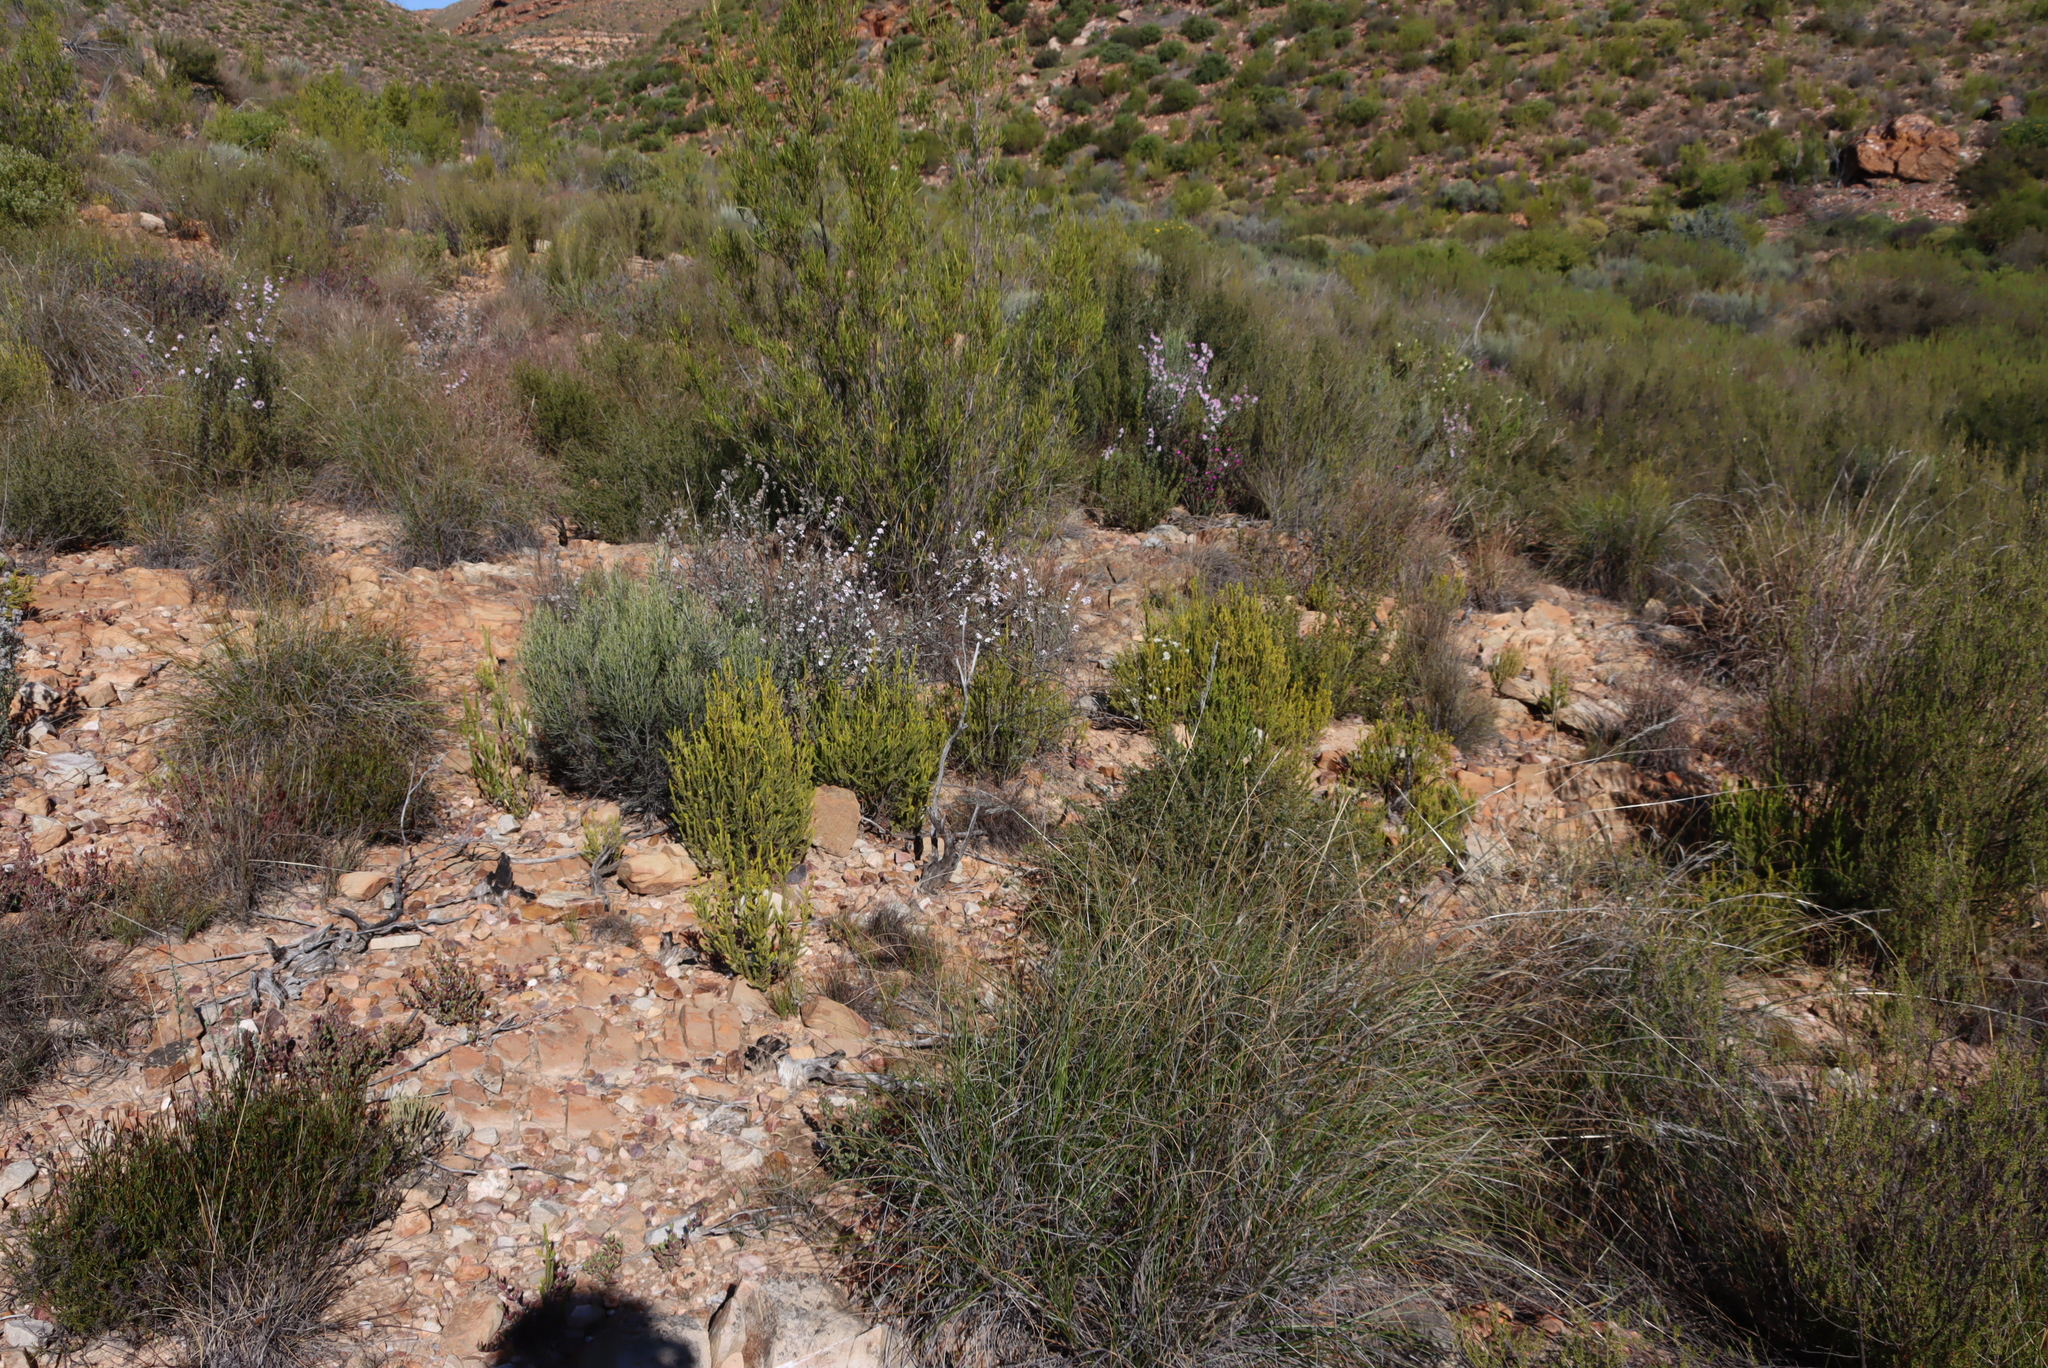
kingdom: Plantae
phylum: Tracheophyta
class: Magnoliopsida
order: Malvales
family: Thymelaeaceae
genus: Passerina
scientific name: Passerina obtusifolia
